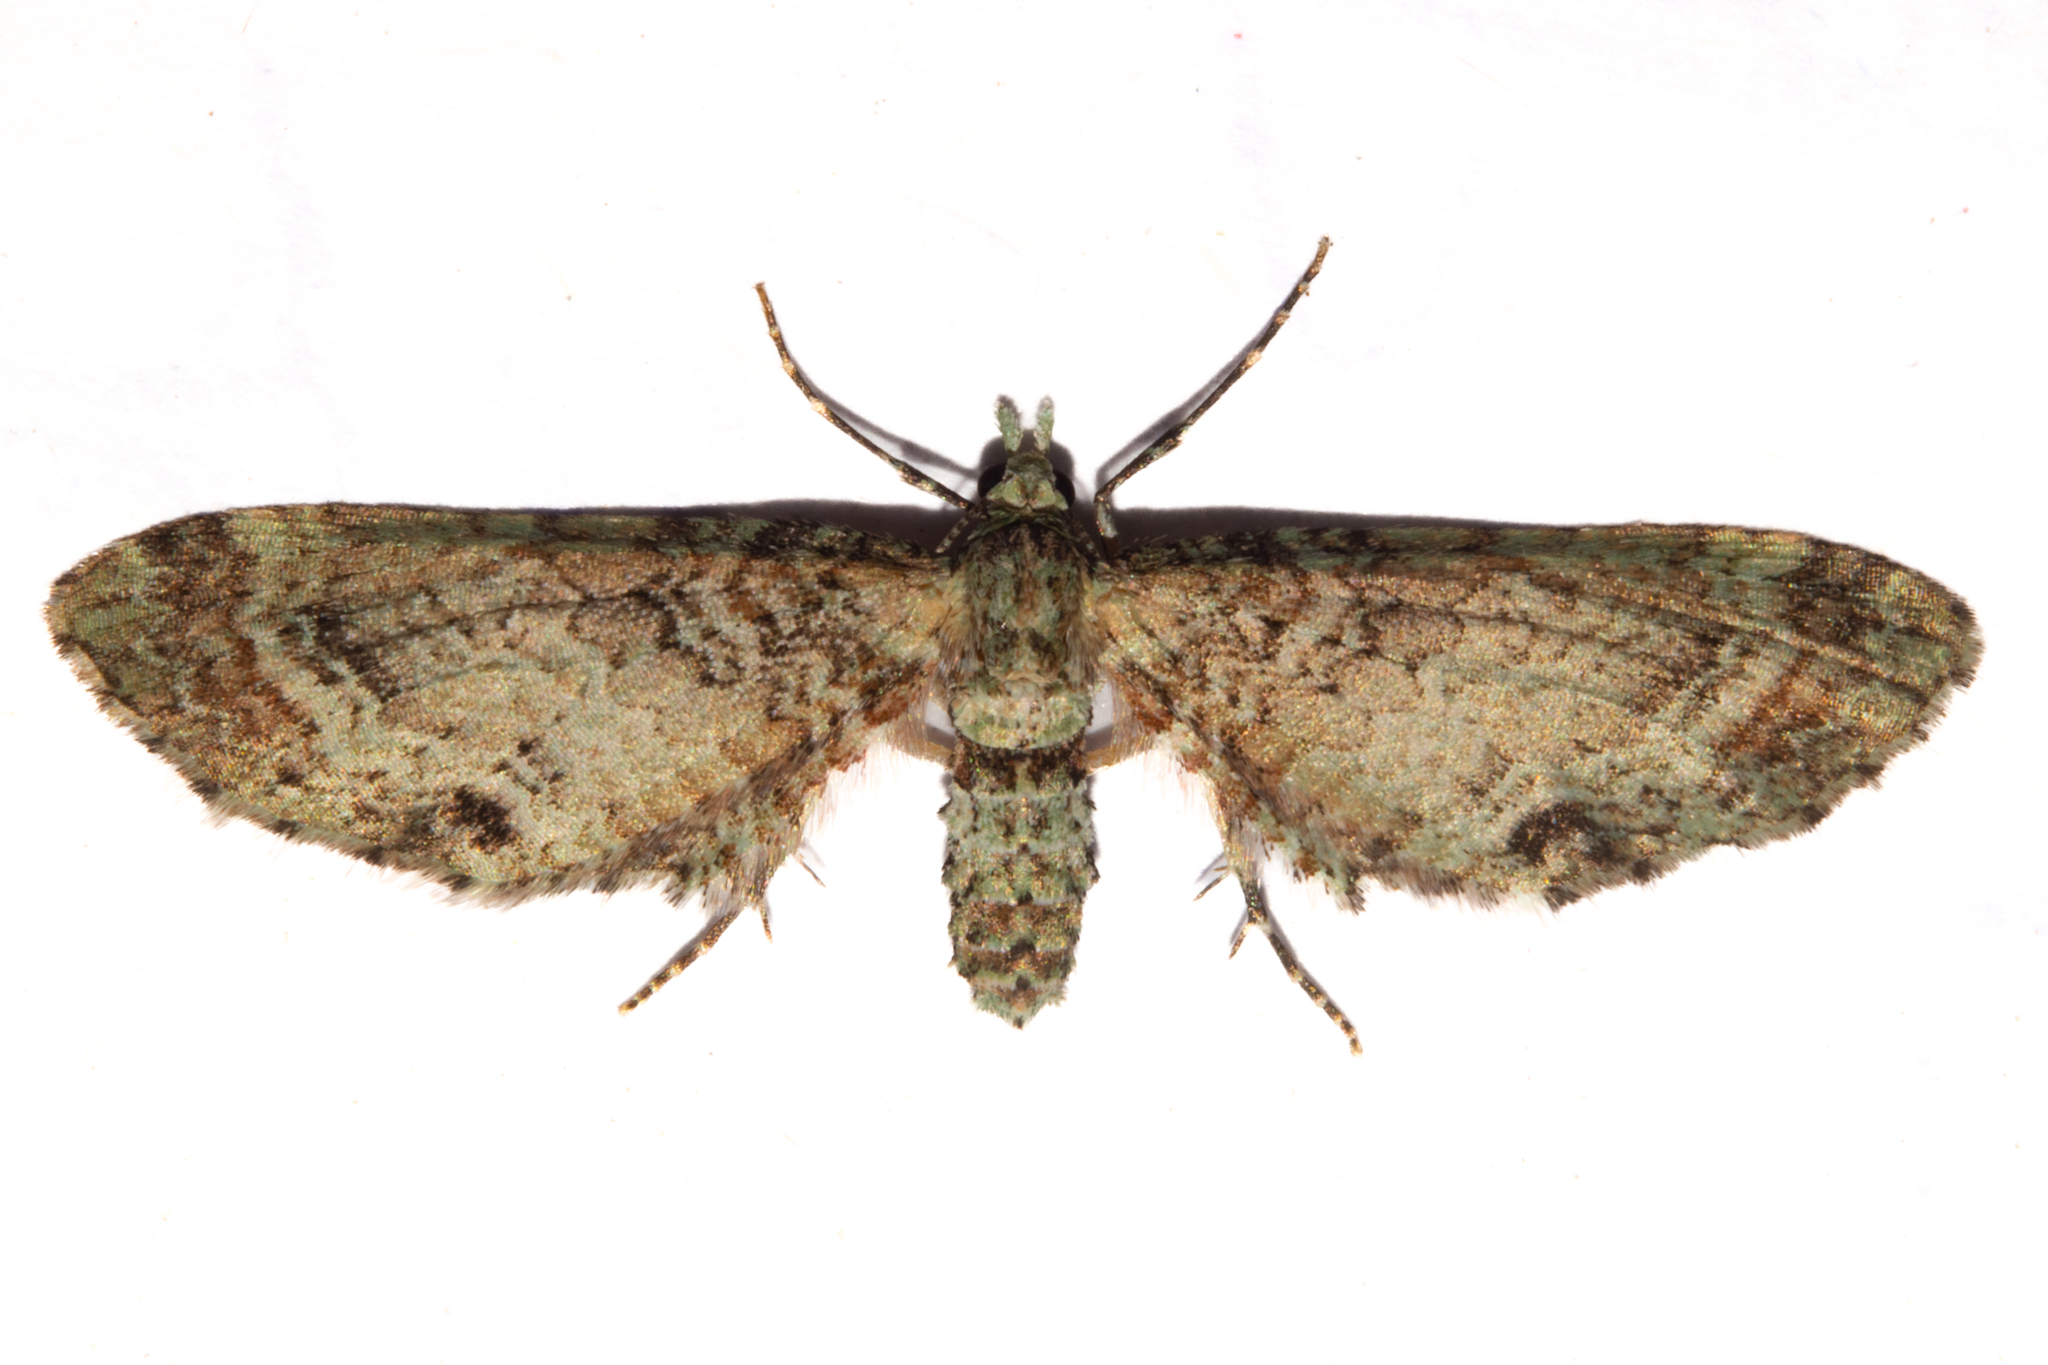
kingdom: Animalia
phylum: Arthropoda
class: Insecta
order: Lepidoptera
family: Geometridae
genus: Pasiphila
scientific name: Pasiphila cotinaea
